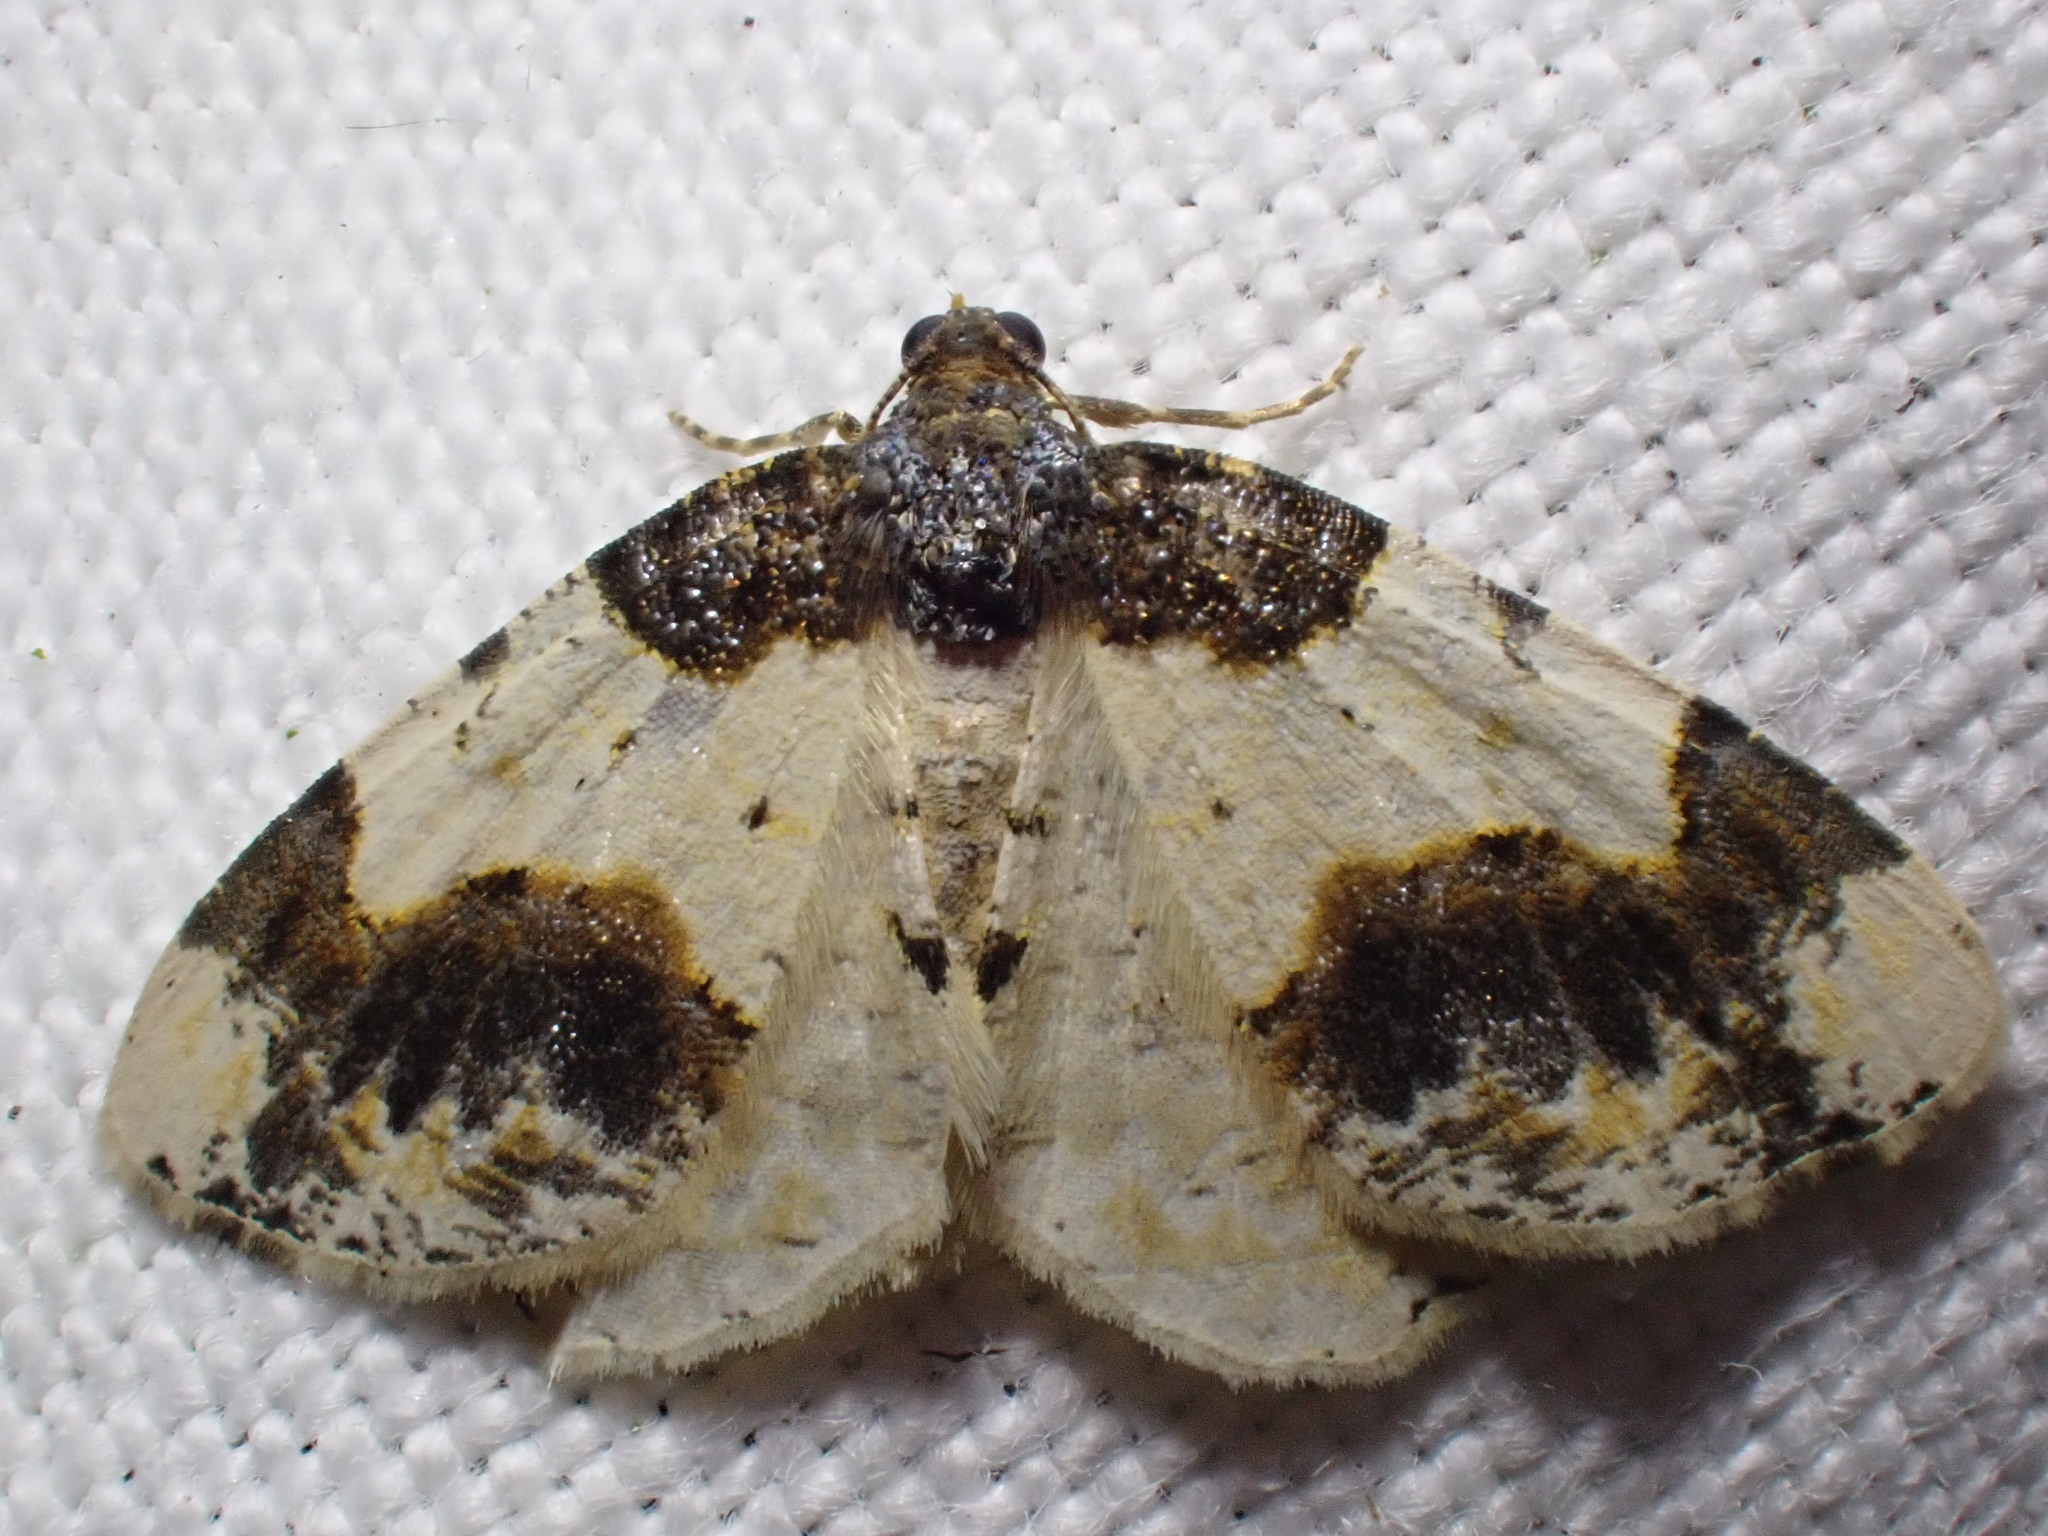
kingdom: Animalia
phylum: Arthropoda
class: Insecta
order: Lepidoptera
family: Geometridae
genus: Ligdia
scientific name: Ligdia adustata
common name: Scorched carpet
